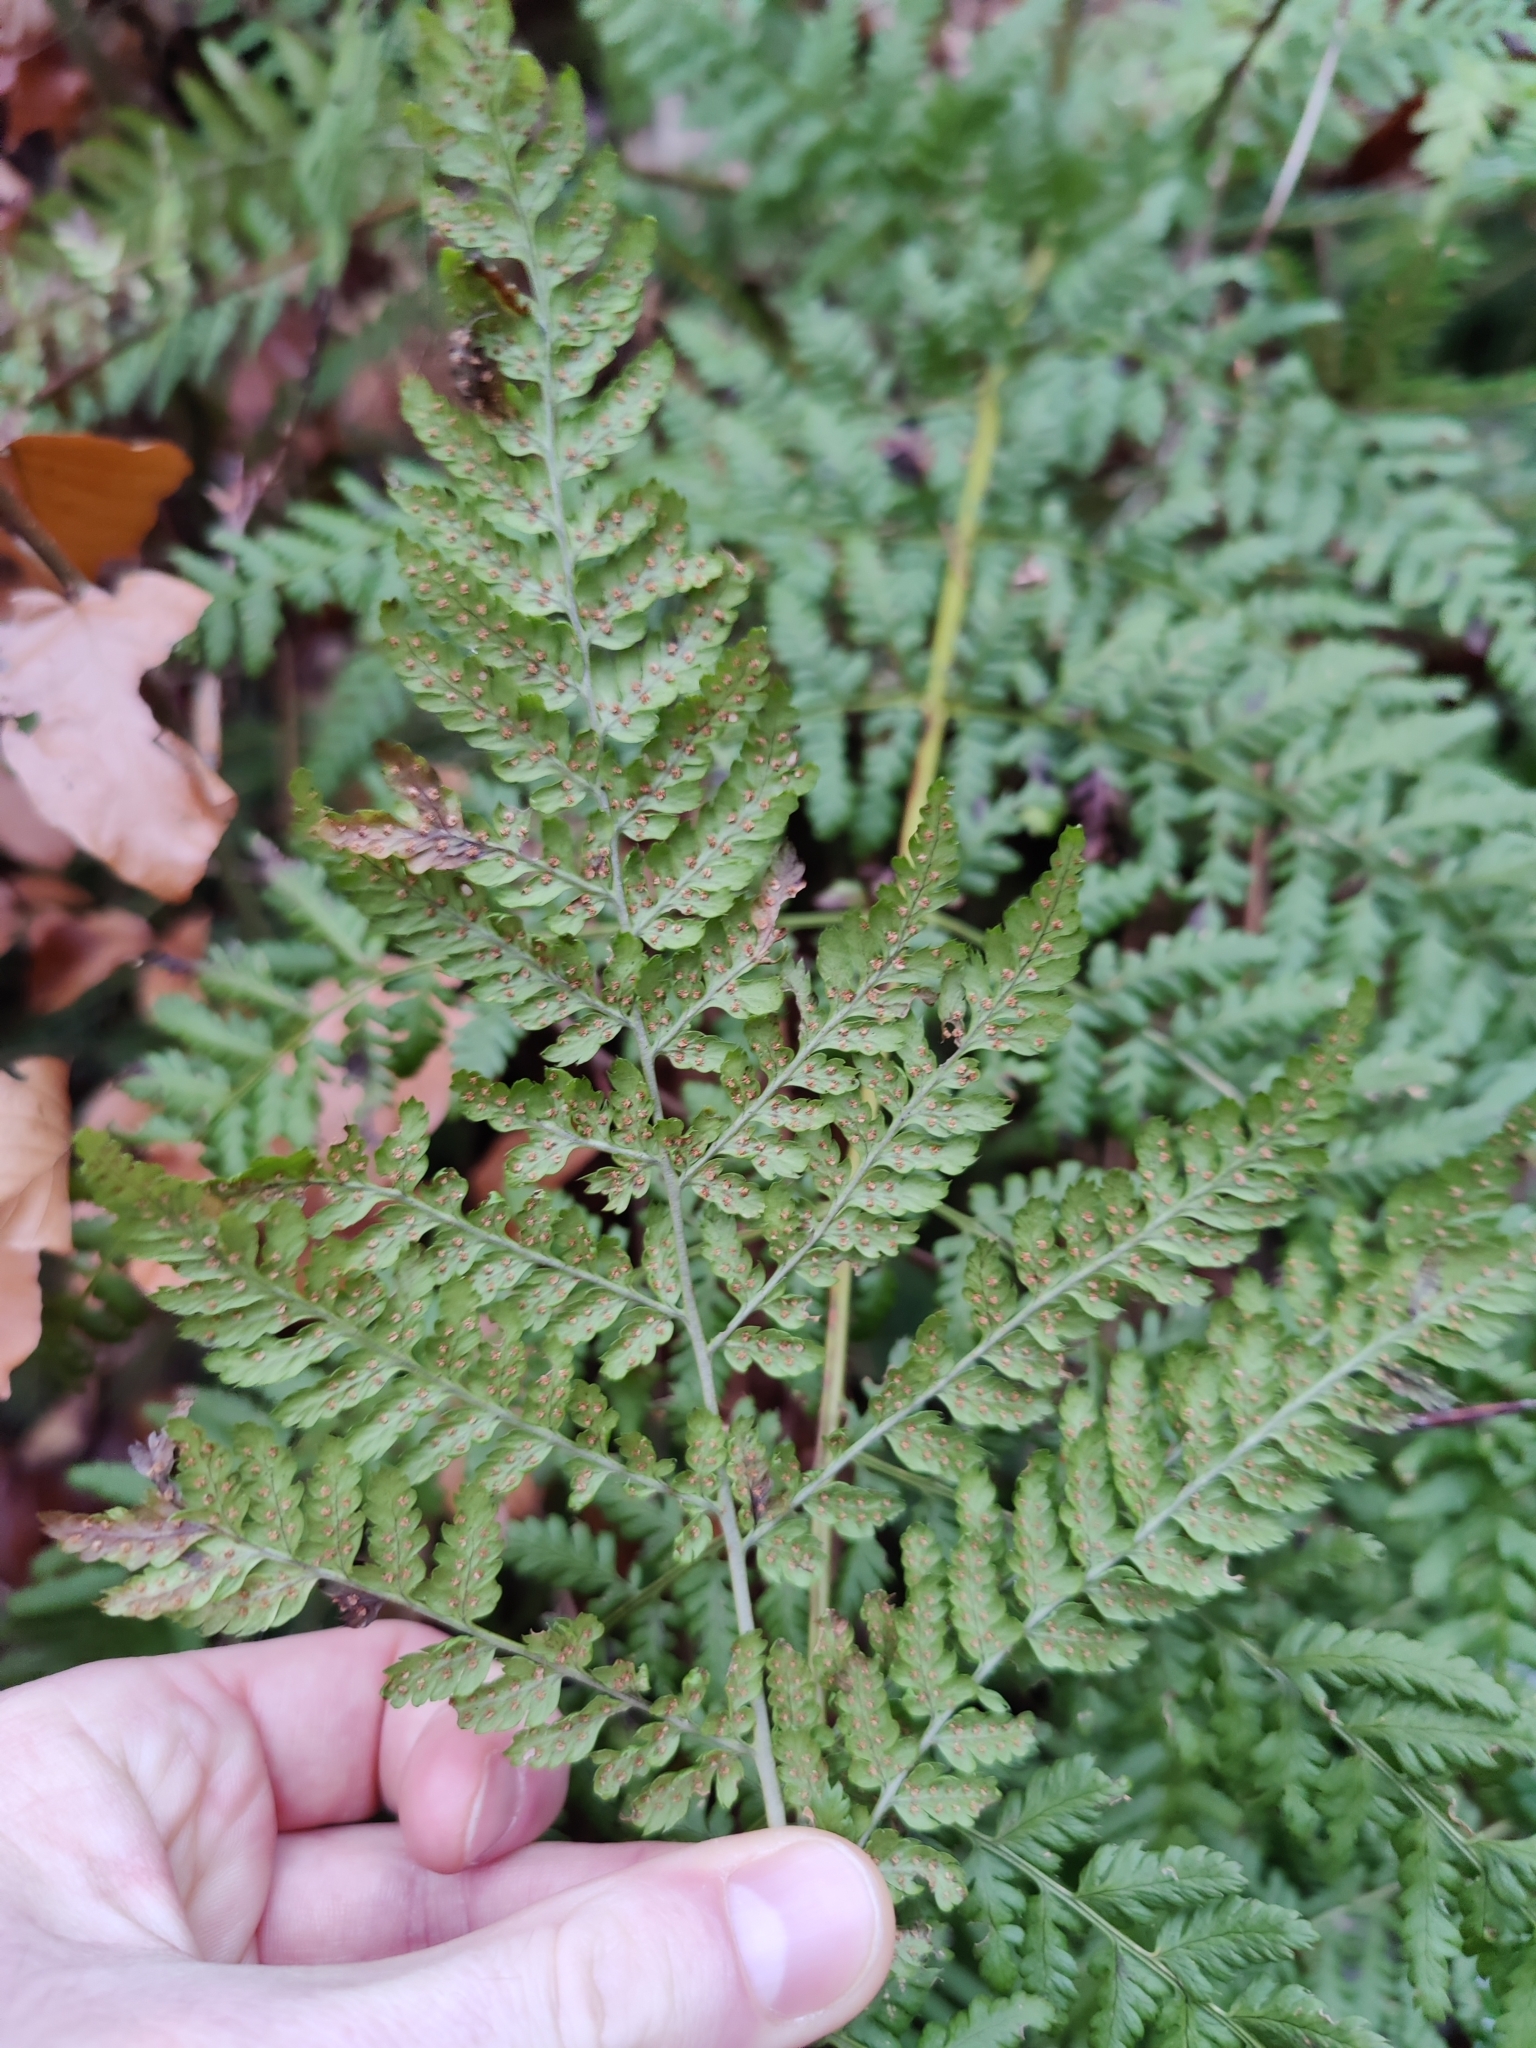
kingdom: Plantae
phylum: Tracheophyta
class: Polypodiopsida
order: Polypodiales
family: Dryopteridaceae
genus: Dryopteris
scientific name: Dryopteris dilatata
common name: Broad buckler-fern
